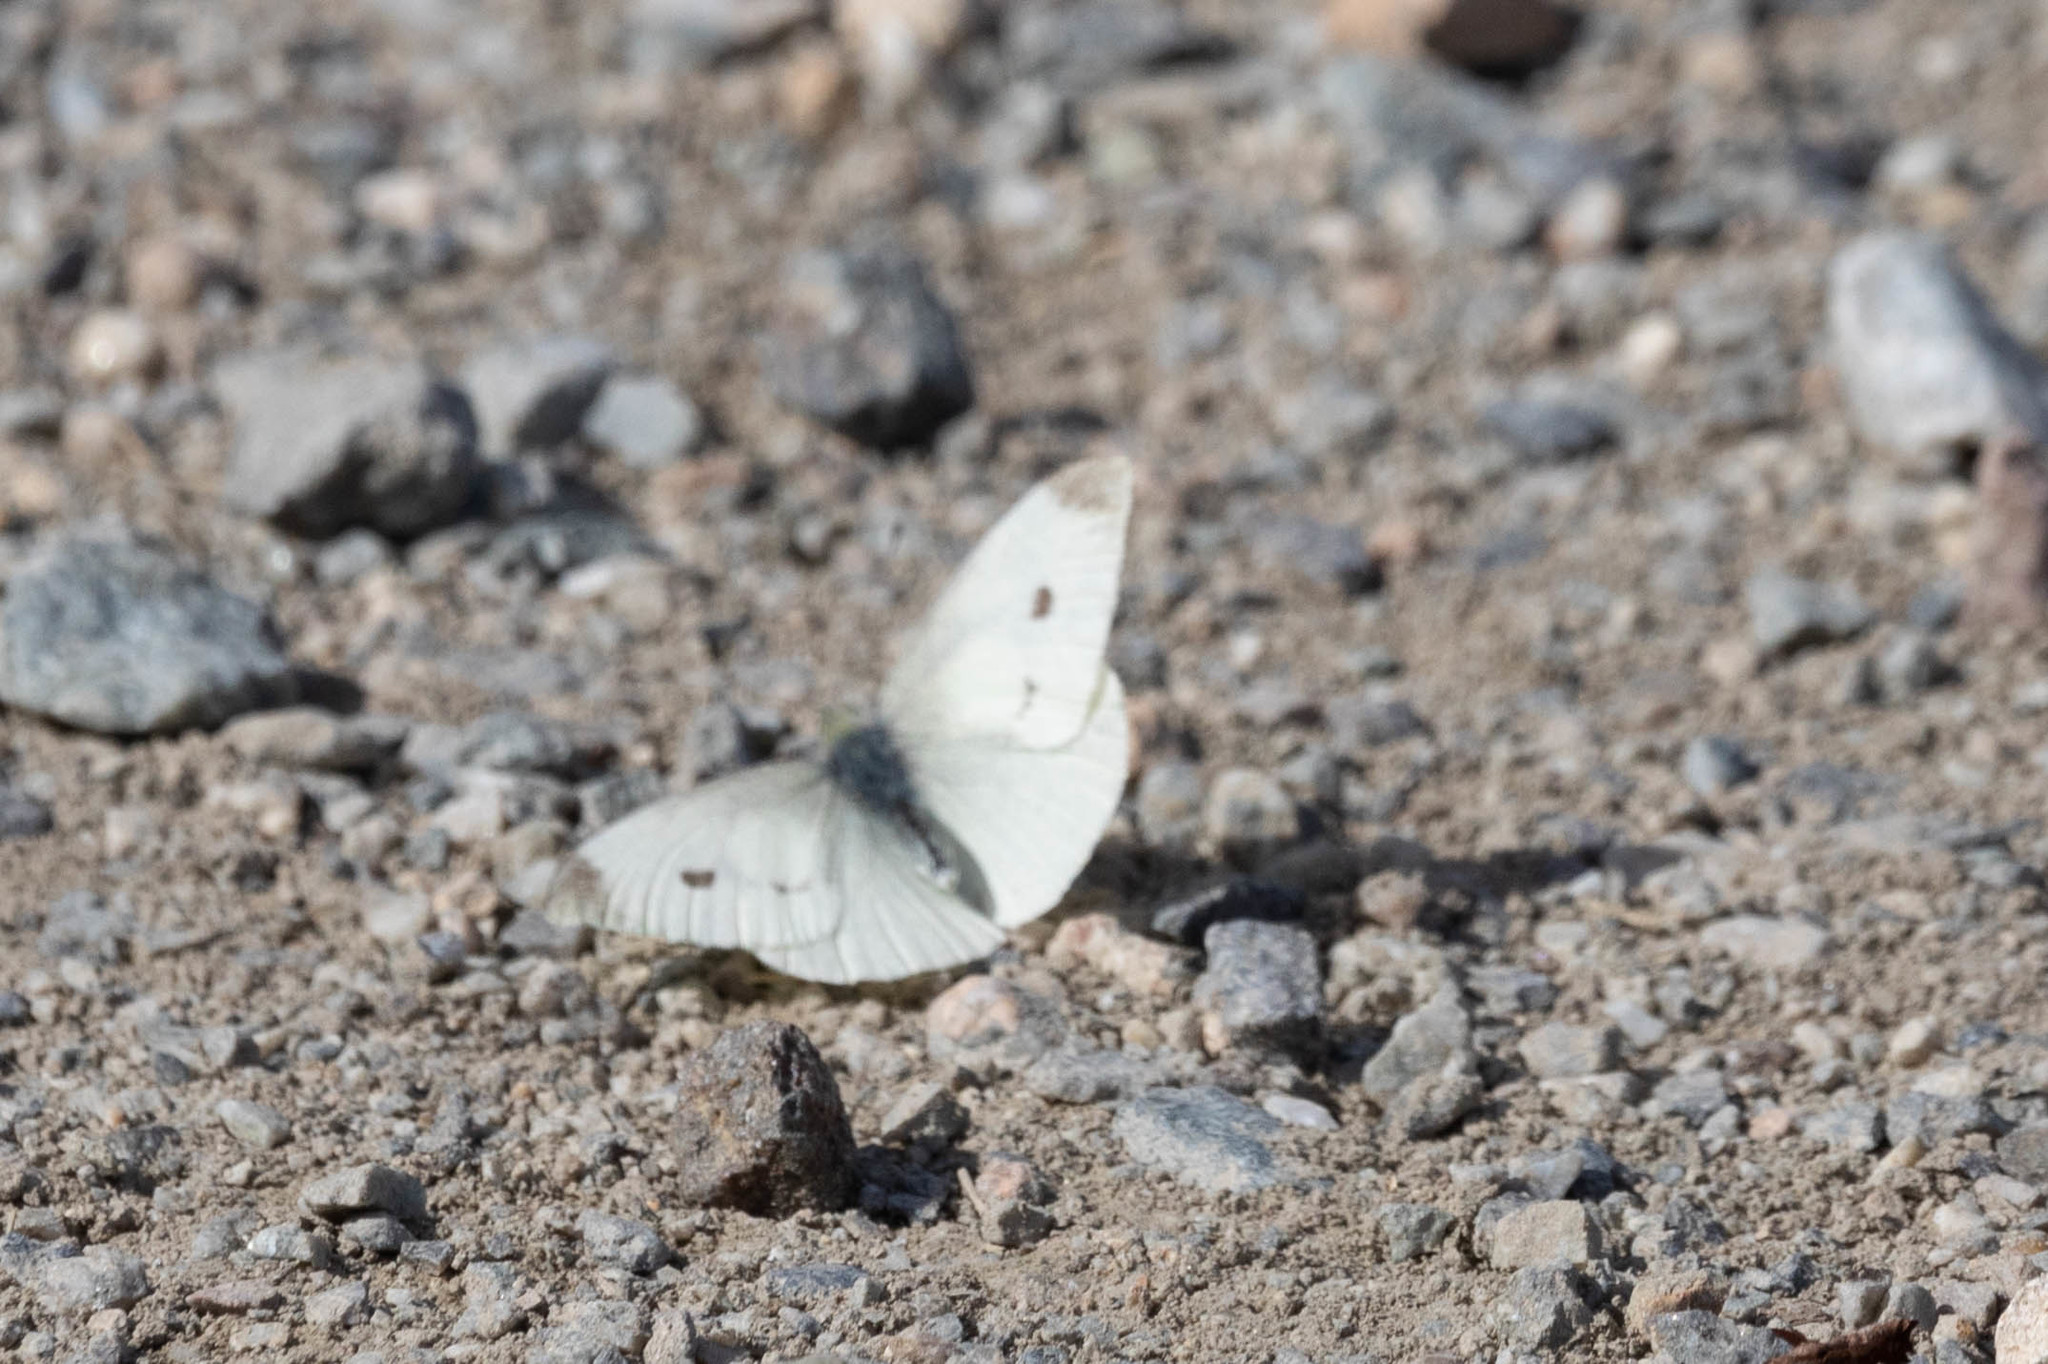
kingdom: Animalia
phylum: Arthropoda
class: Insecta
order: Lepidoptera
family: Pieridae
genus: Pieris
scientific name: Pieris rapae
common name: Small white
